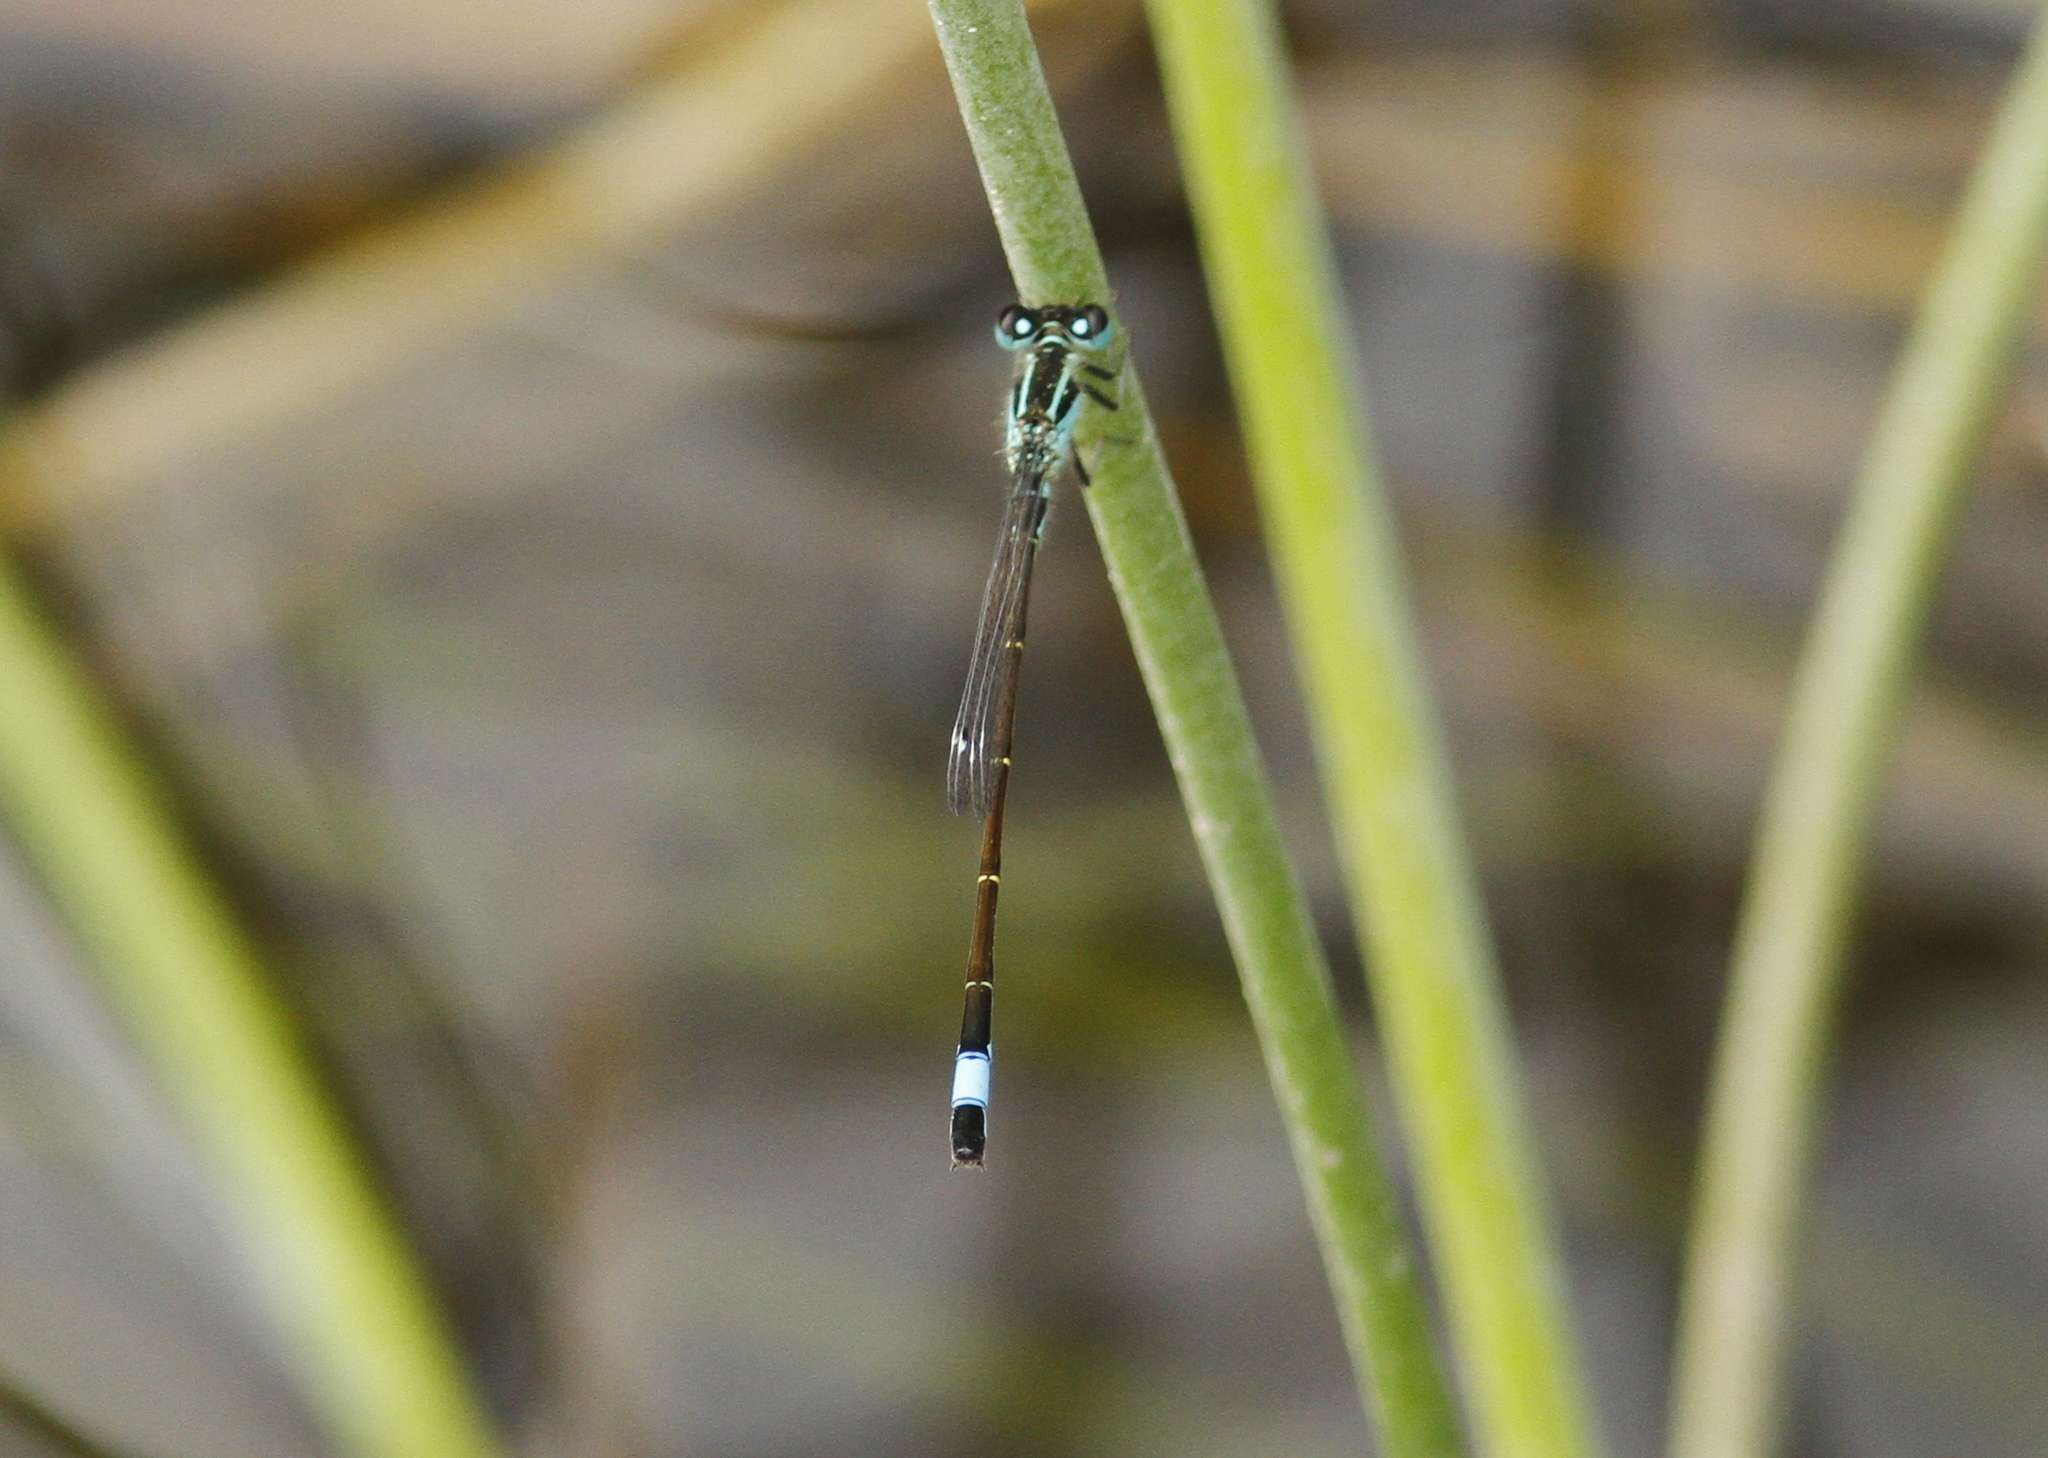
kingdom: Animalia
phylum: Arthropoda
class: Insecta
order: Odonata
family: Coenagrionidae
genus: Ischnura
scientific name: Ischnura elegans
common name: Blue-tailed damselfly
